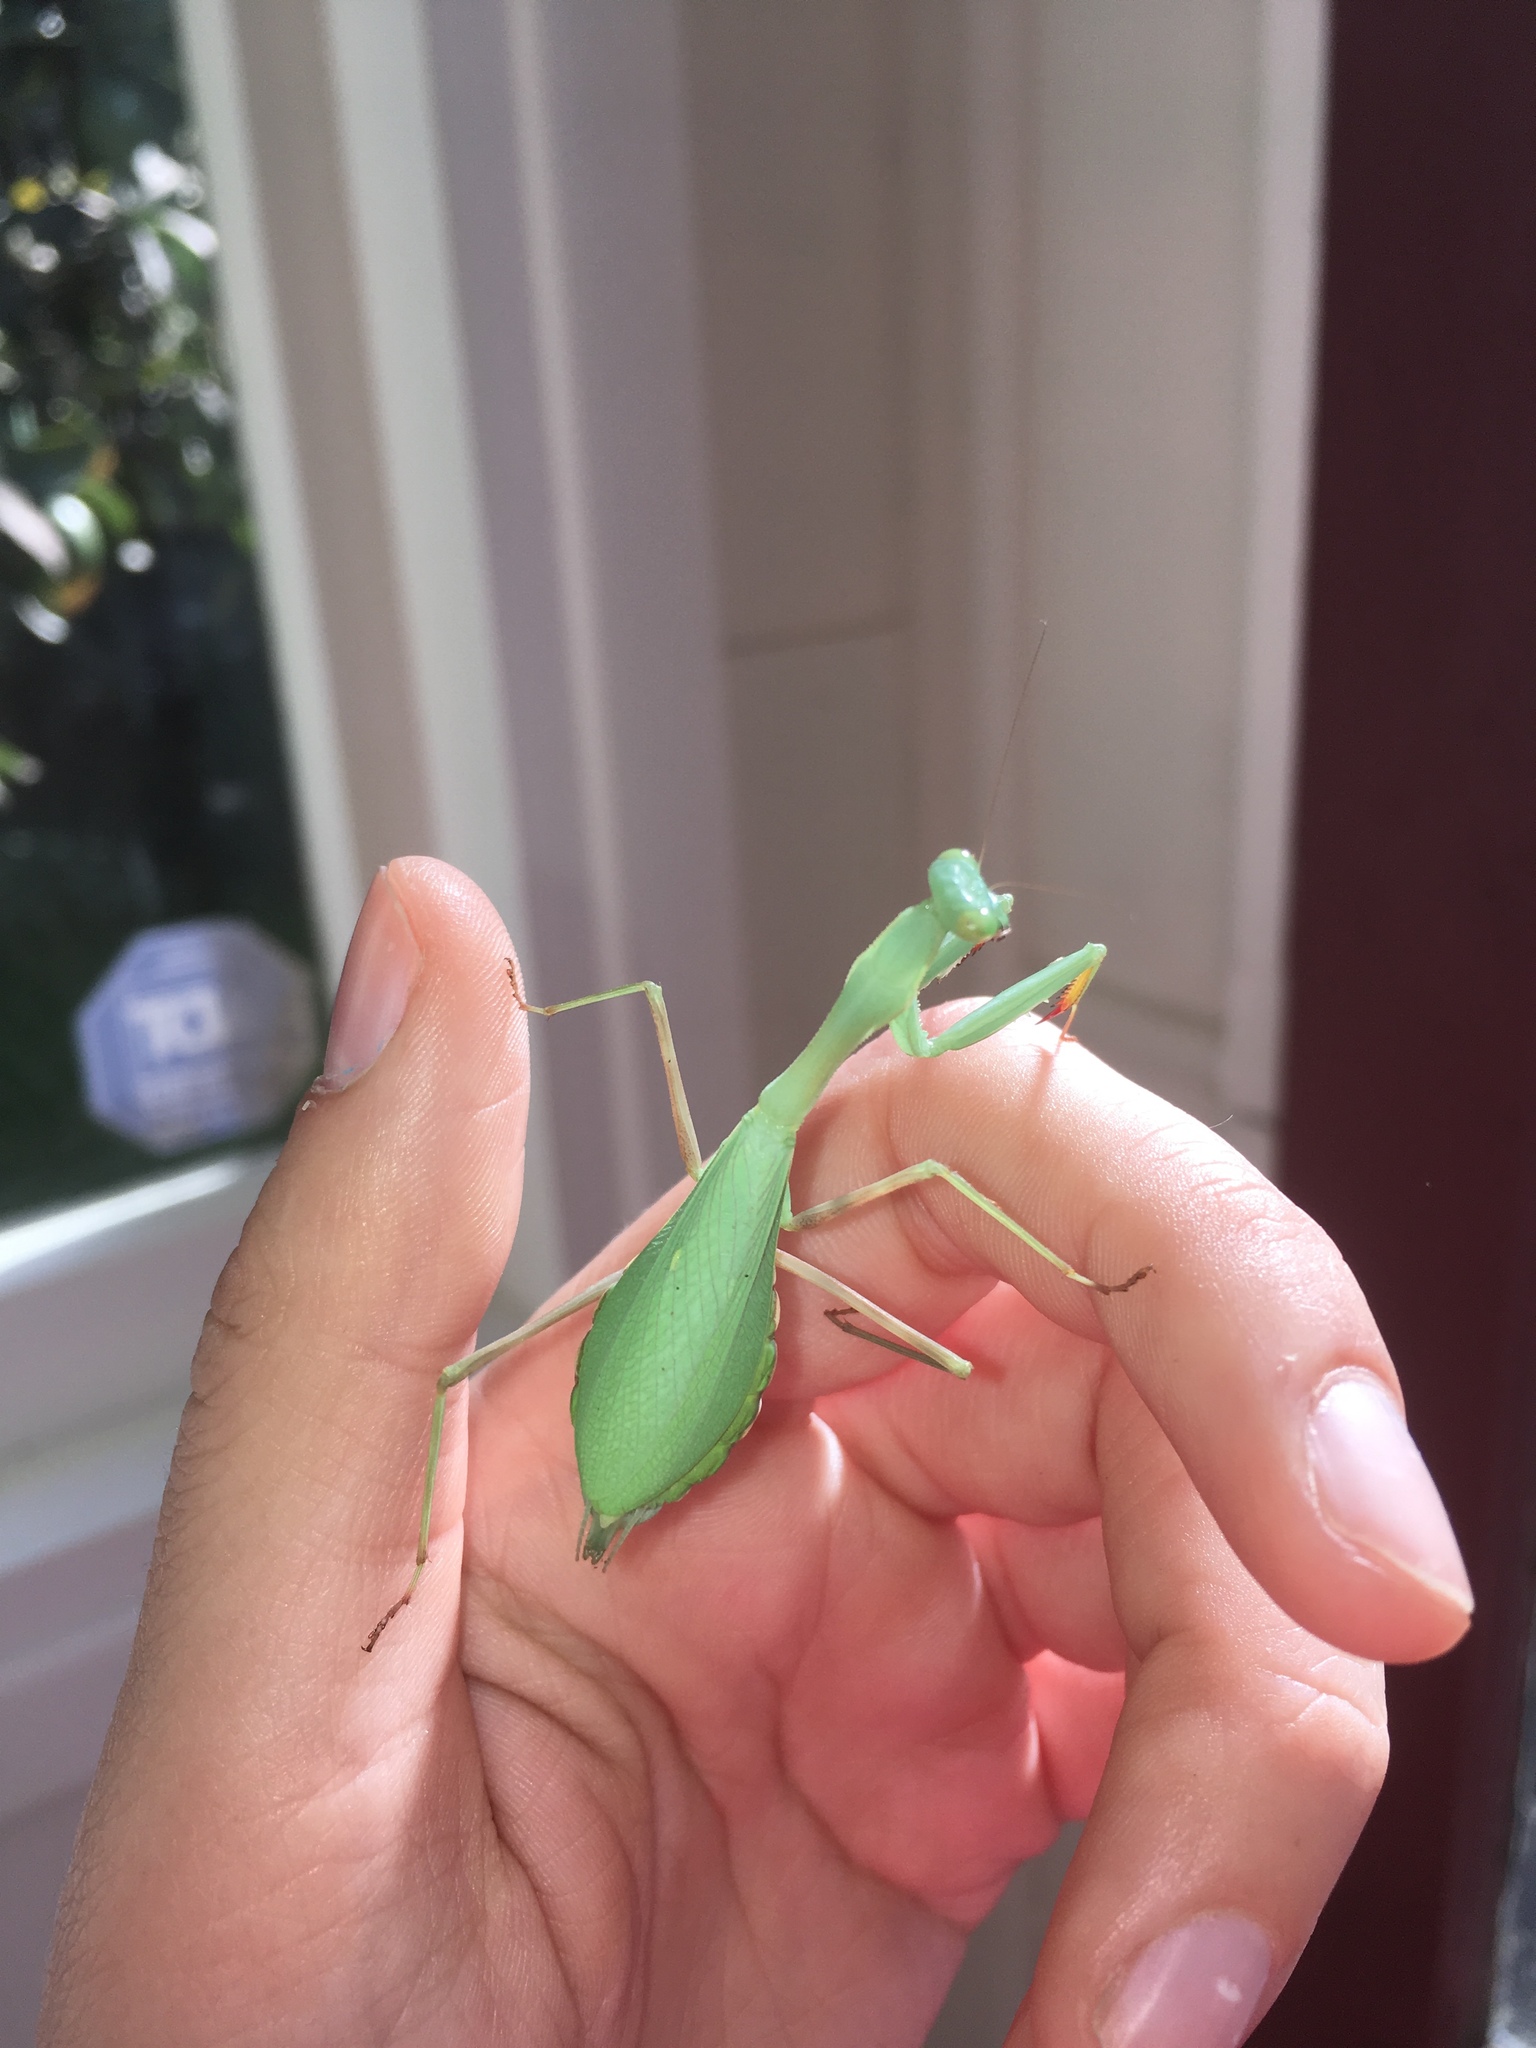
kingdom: Animalia
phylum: Arthropoda
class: Insecta
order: Mantodea
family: Miomantidae
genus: Miomantis
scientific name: Miomantis caffra
